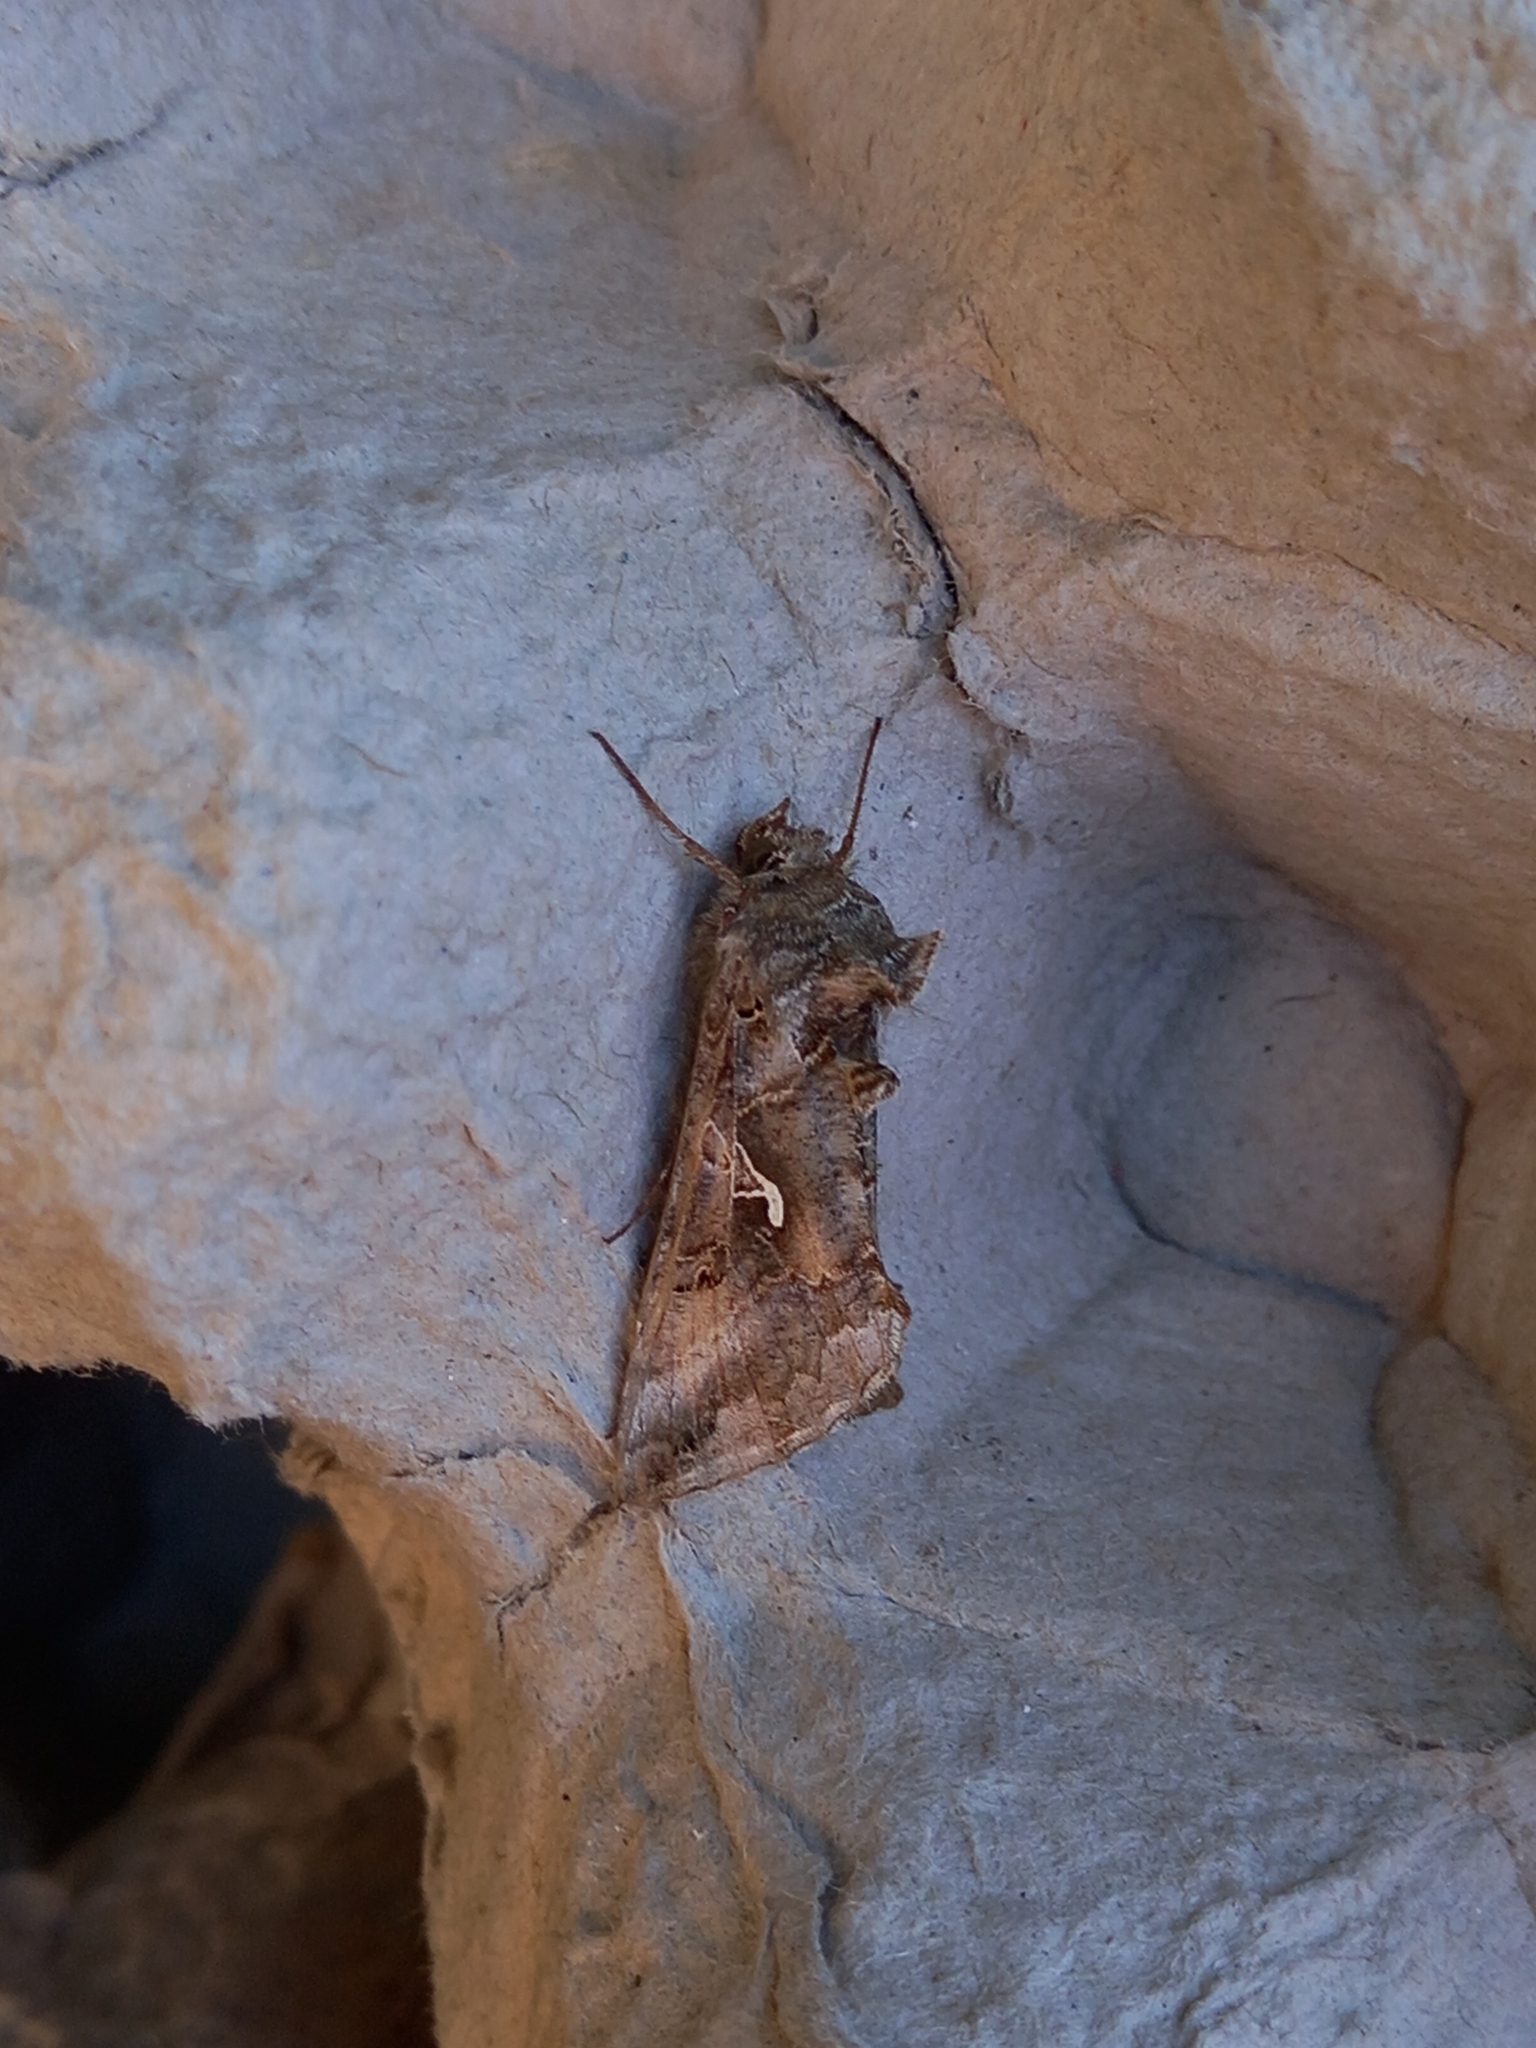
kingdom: Animalia
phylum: Arthropoda
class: Insecta
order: Lepidoptera
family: Noctuidae
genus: Autographa
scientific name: Autographa gamma
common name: Silver y
